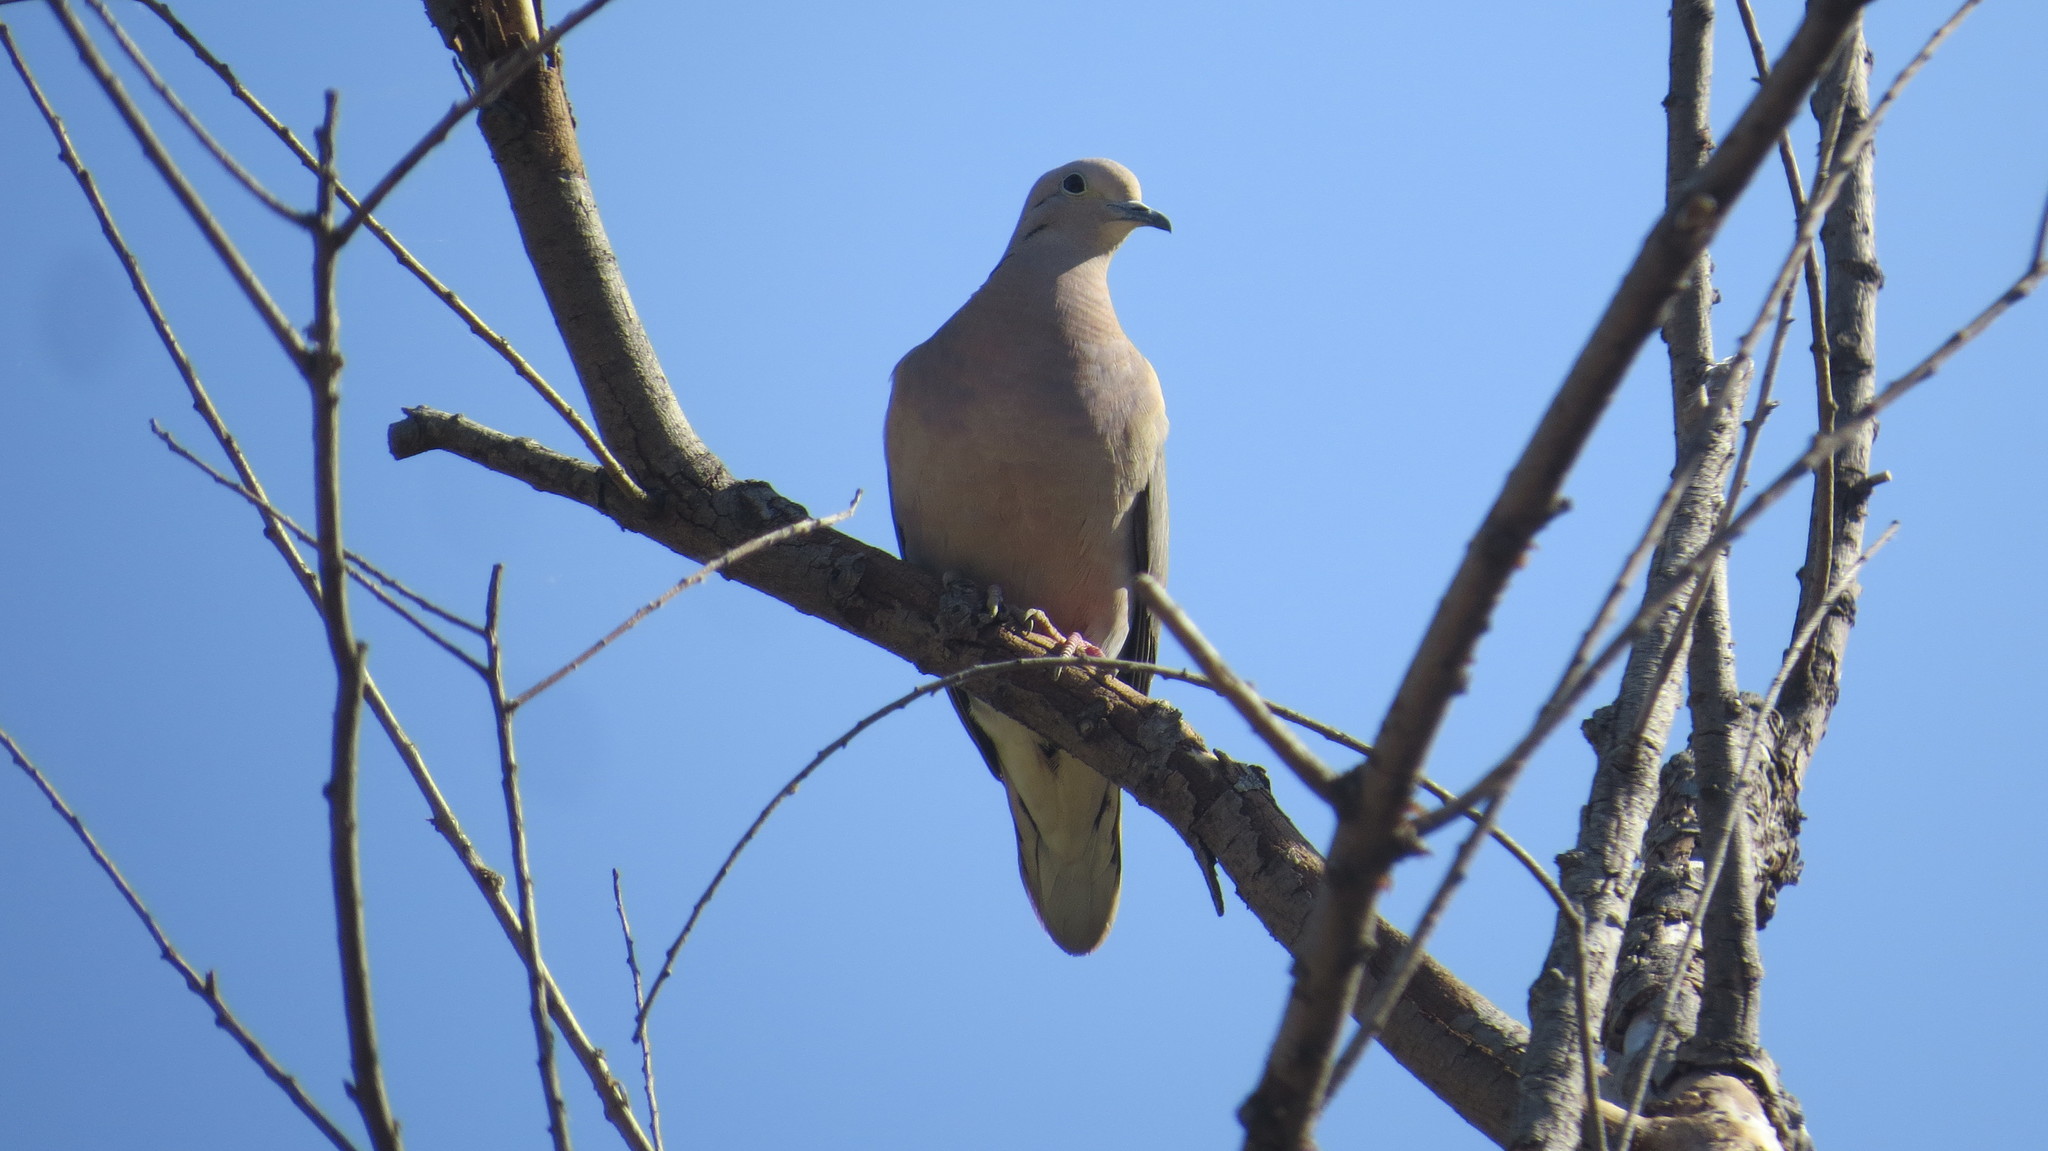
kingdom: Animalia
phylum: Chordata
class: Aves
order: Columbiformes
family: Columbidae
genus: Zenaida
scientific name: Zenaida auriculata
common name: Eared dove
